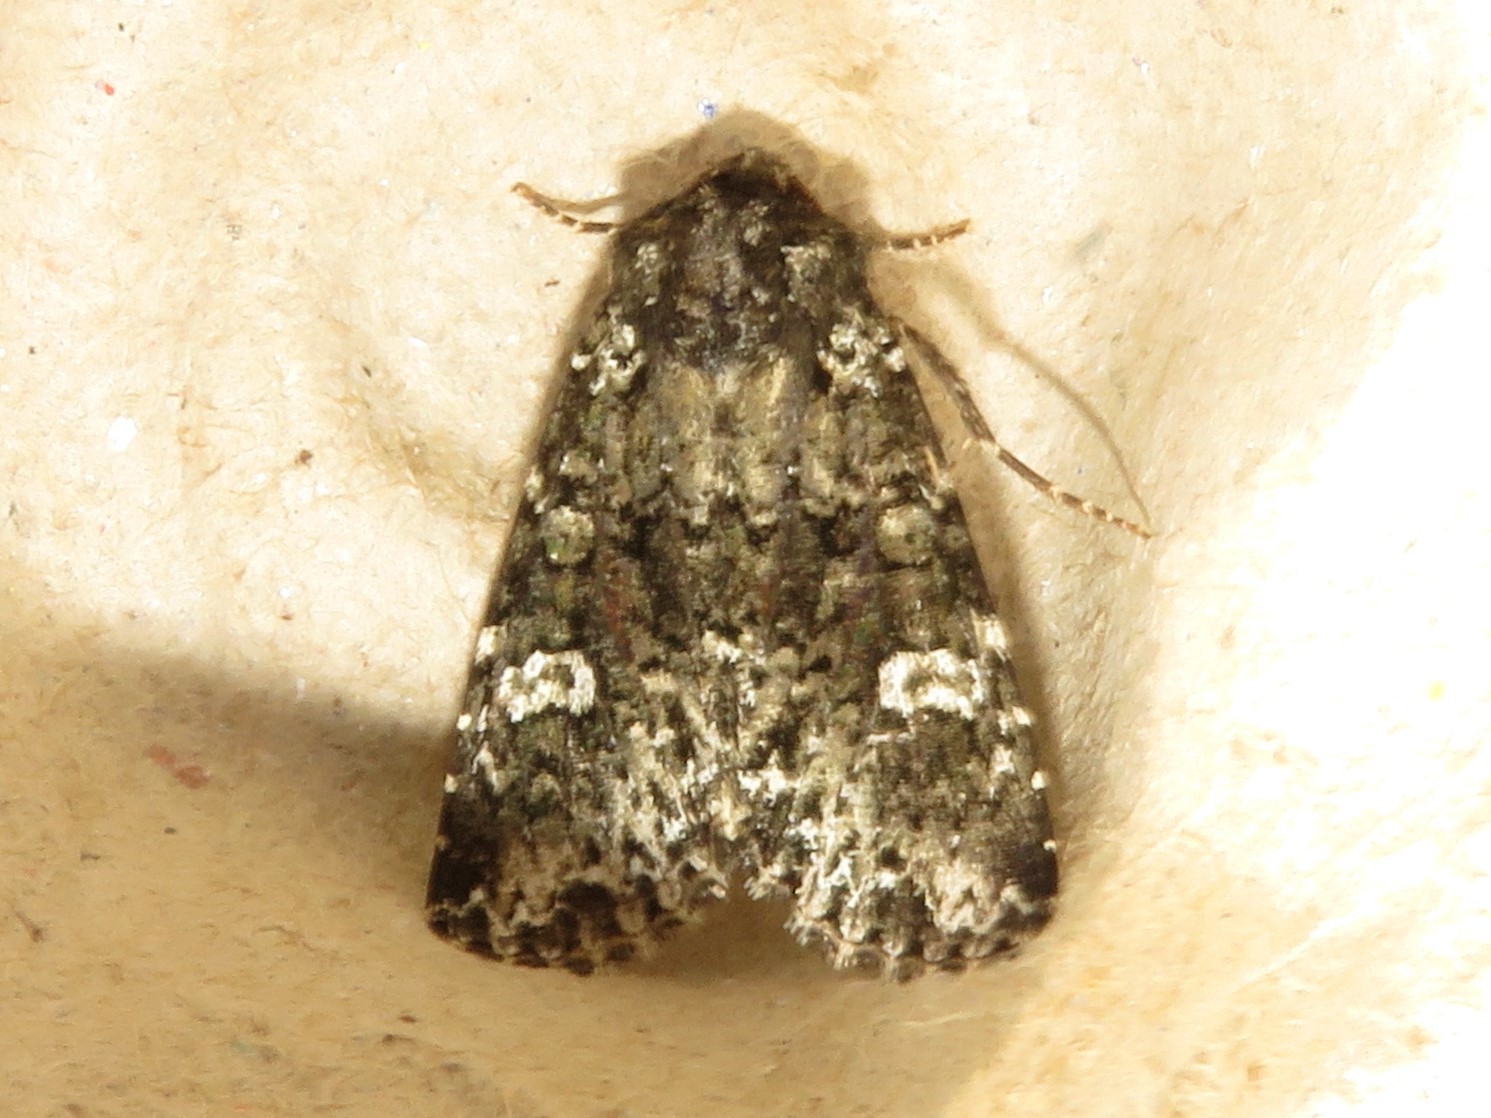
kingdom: Animalia
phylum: Arthropoda
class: Insecta
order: Lepidoptera
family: Noctuidae
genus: Melanchra
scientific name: Melanchra adjuncta
